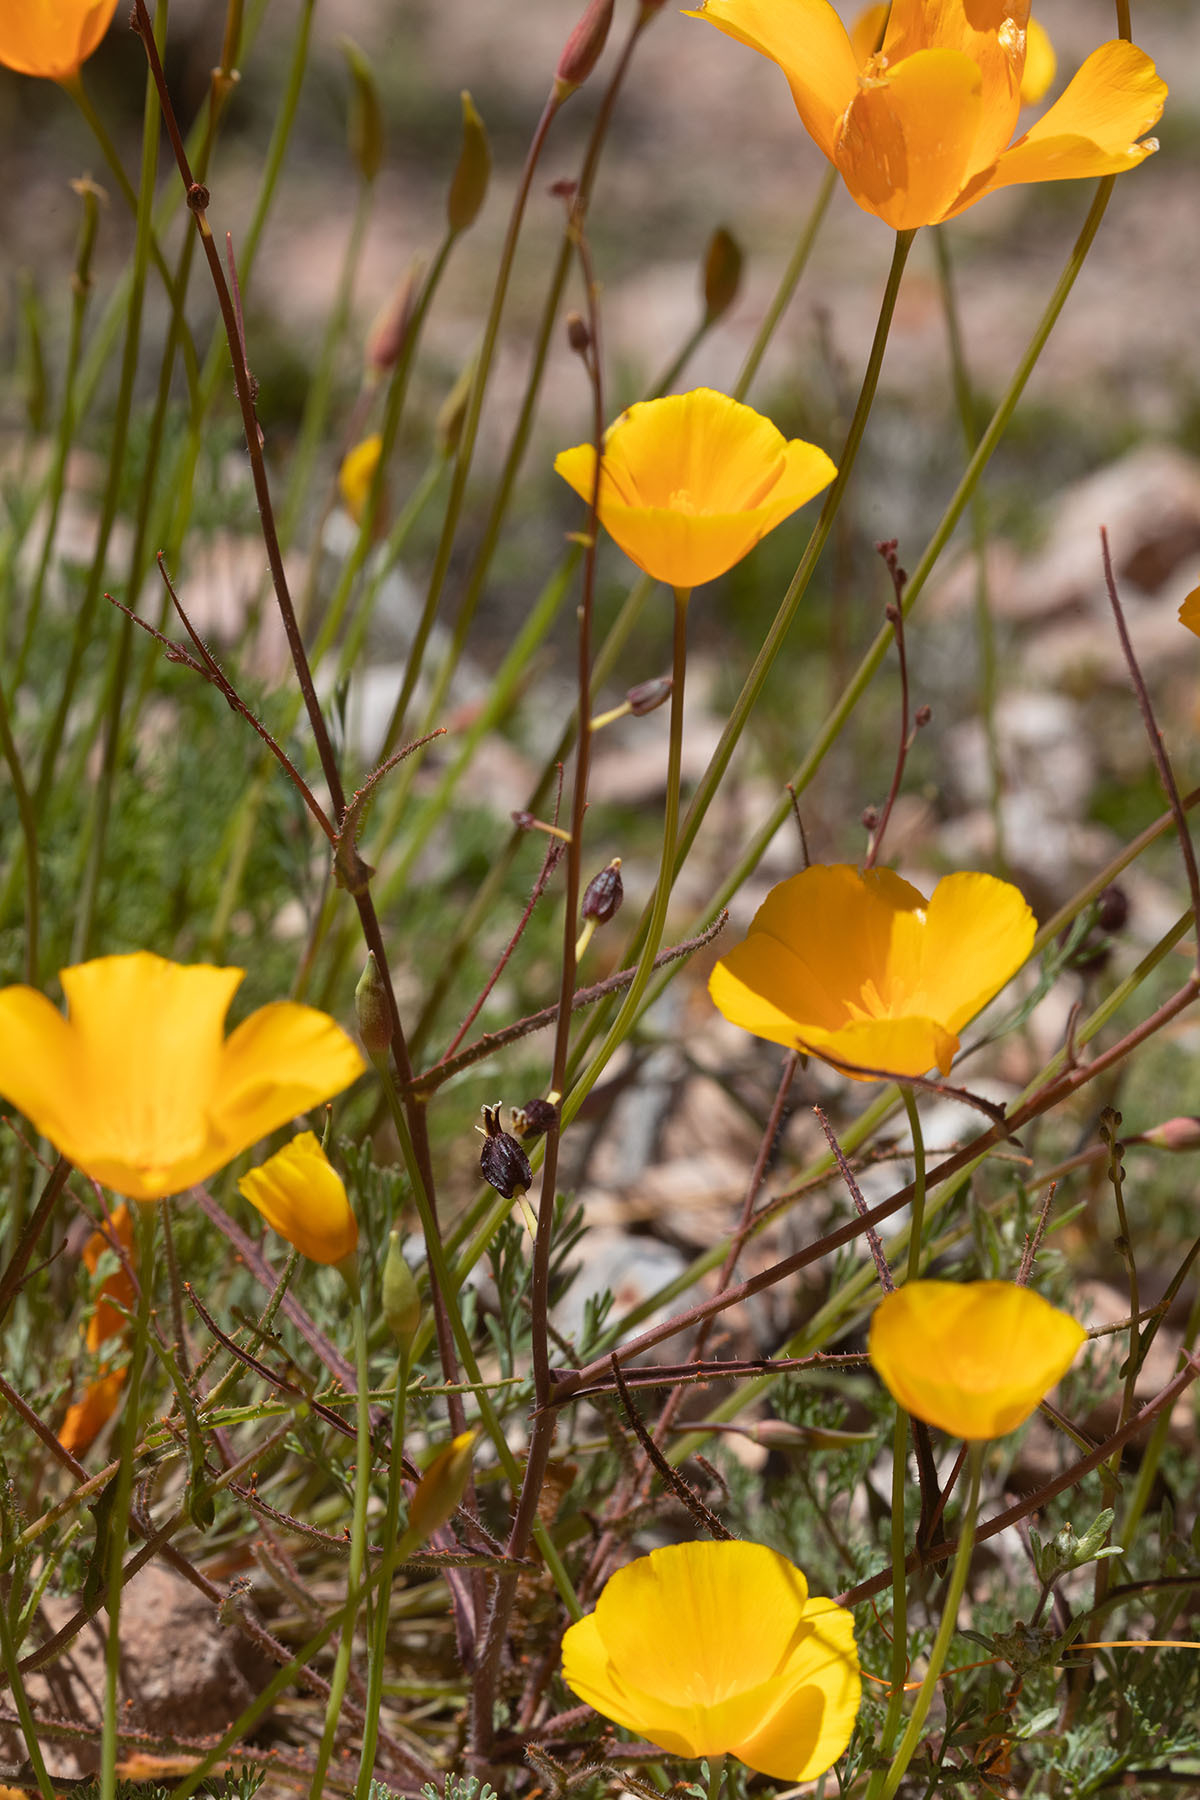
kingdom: Plantae
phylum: Tracheophyta
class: Magnoliopsida
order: Brassicales
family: Brassicaceae
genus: Streptanthus
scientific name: Streptanthus glandulosus
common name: Jewel-flower
